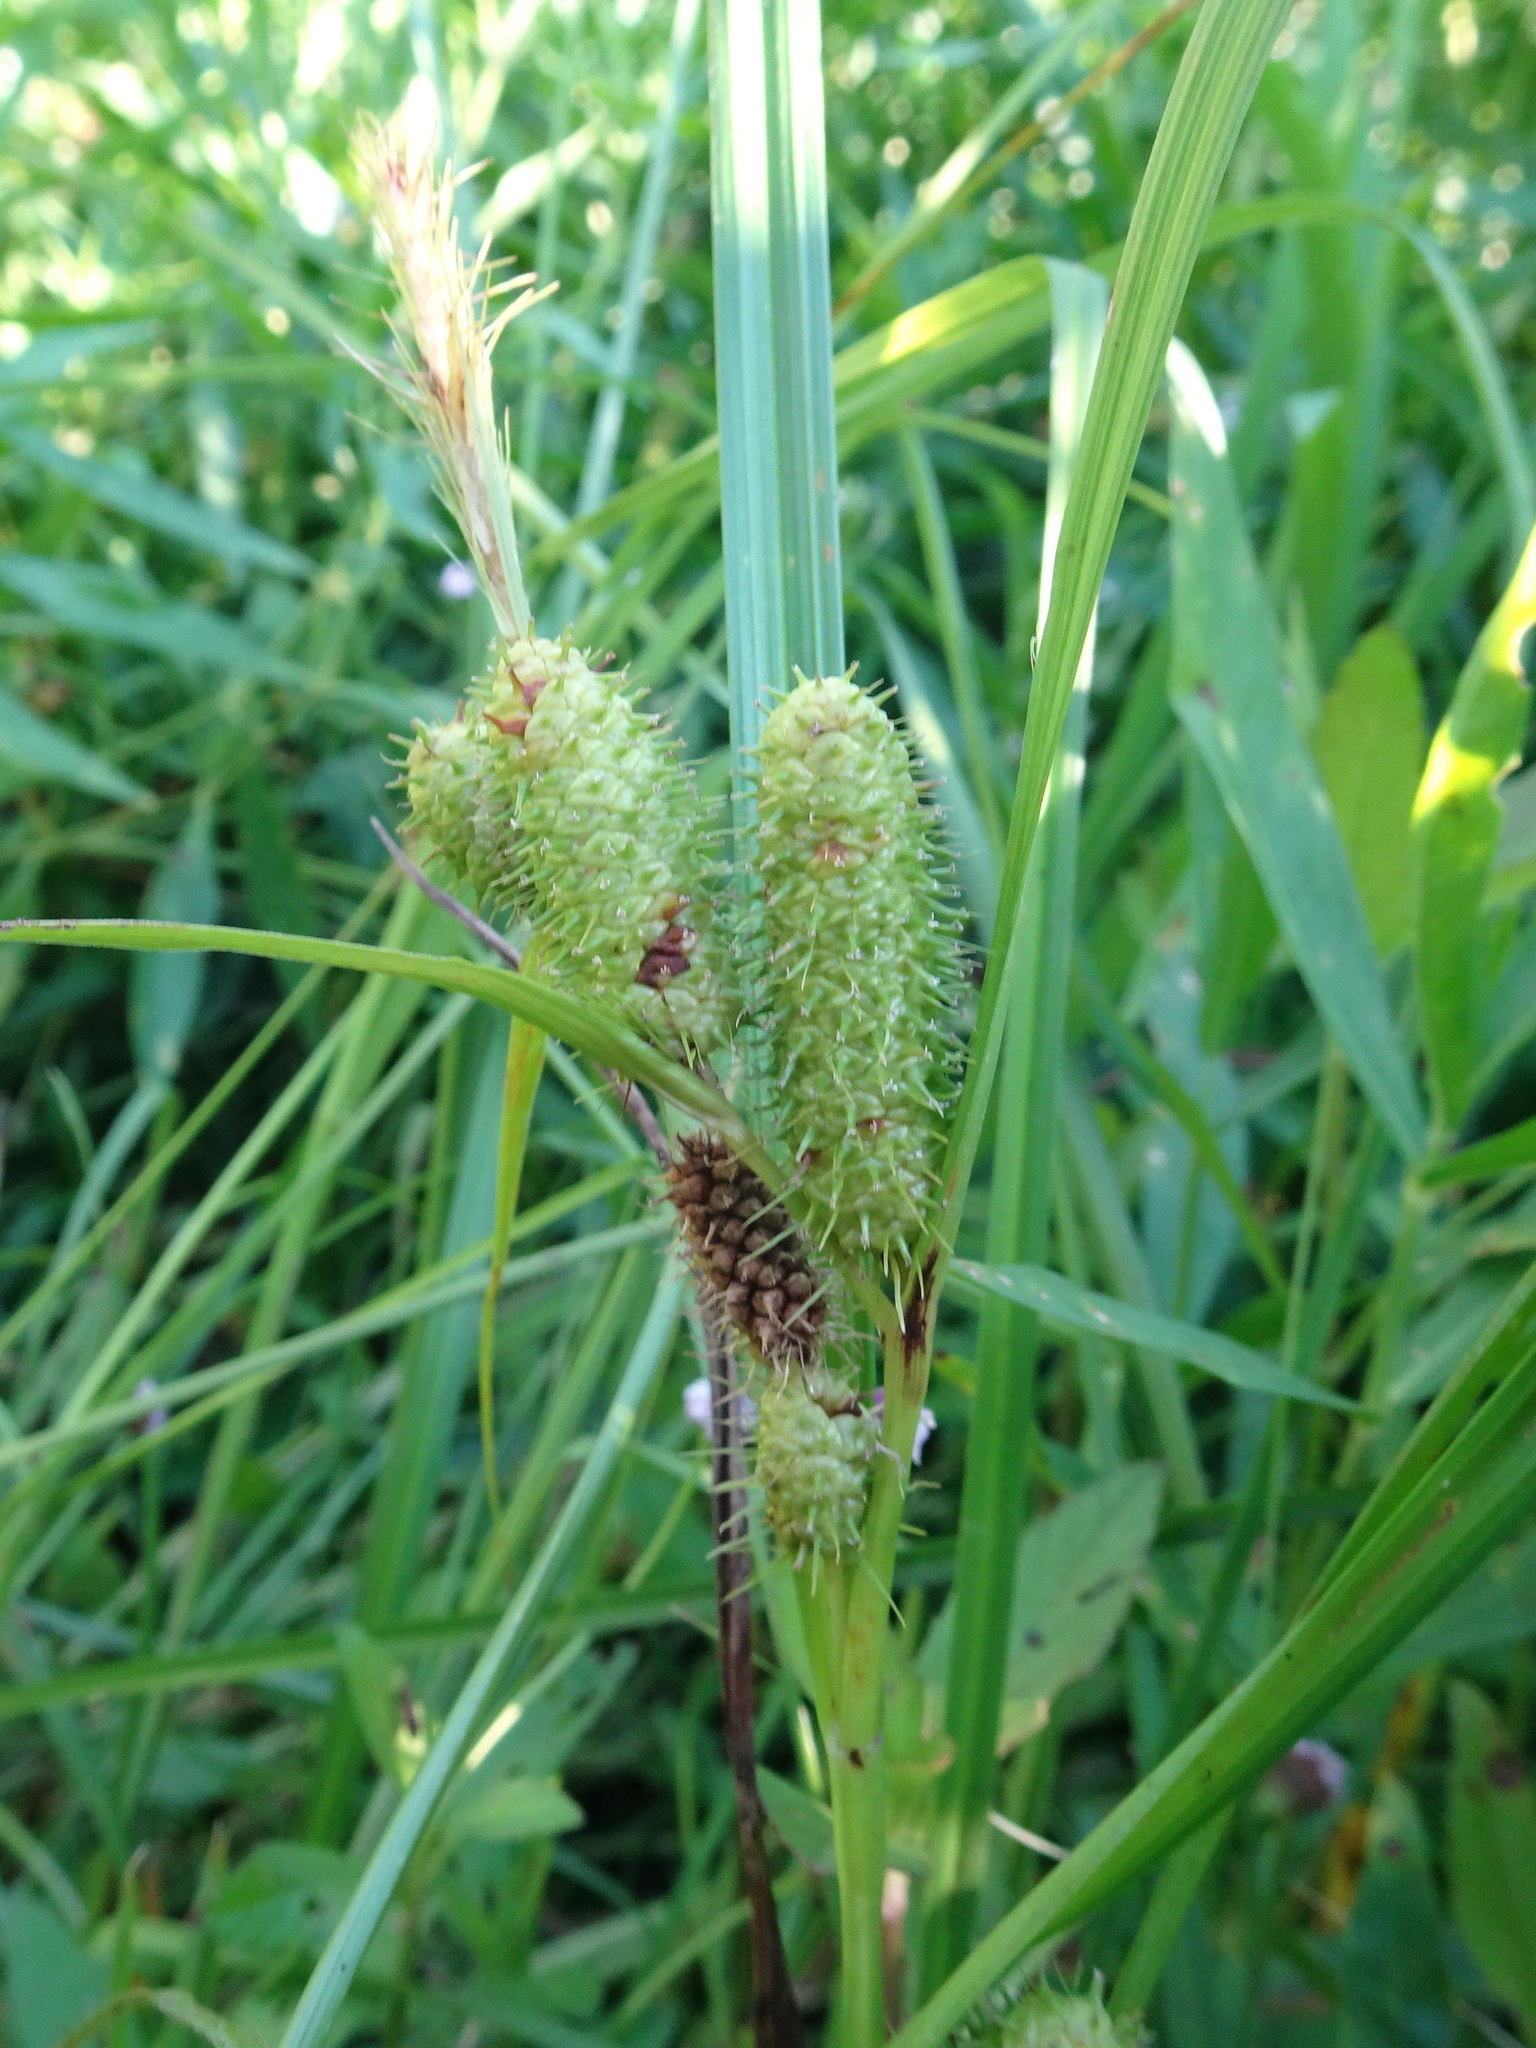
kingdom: Plantae
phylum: Tracheophyta
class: Liliopsida
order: Poales
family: Cyperaceae
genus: Carex
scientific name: Carex frankii
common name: Frank's sedge
